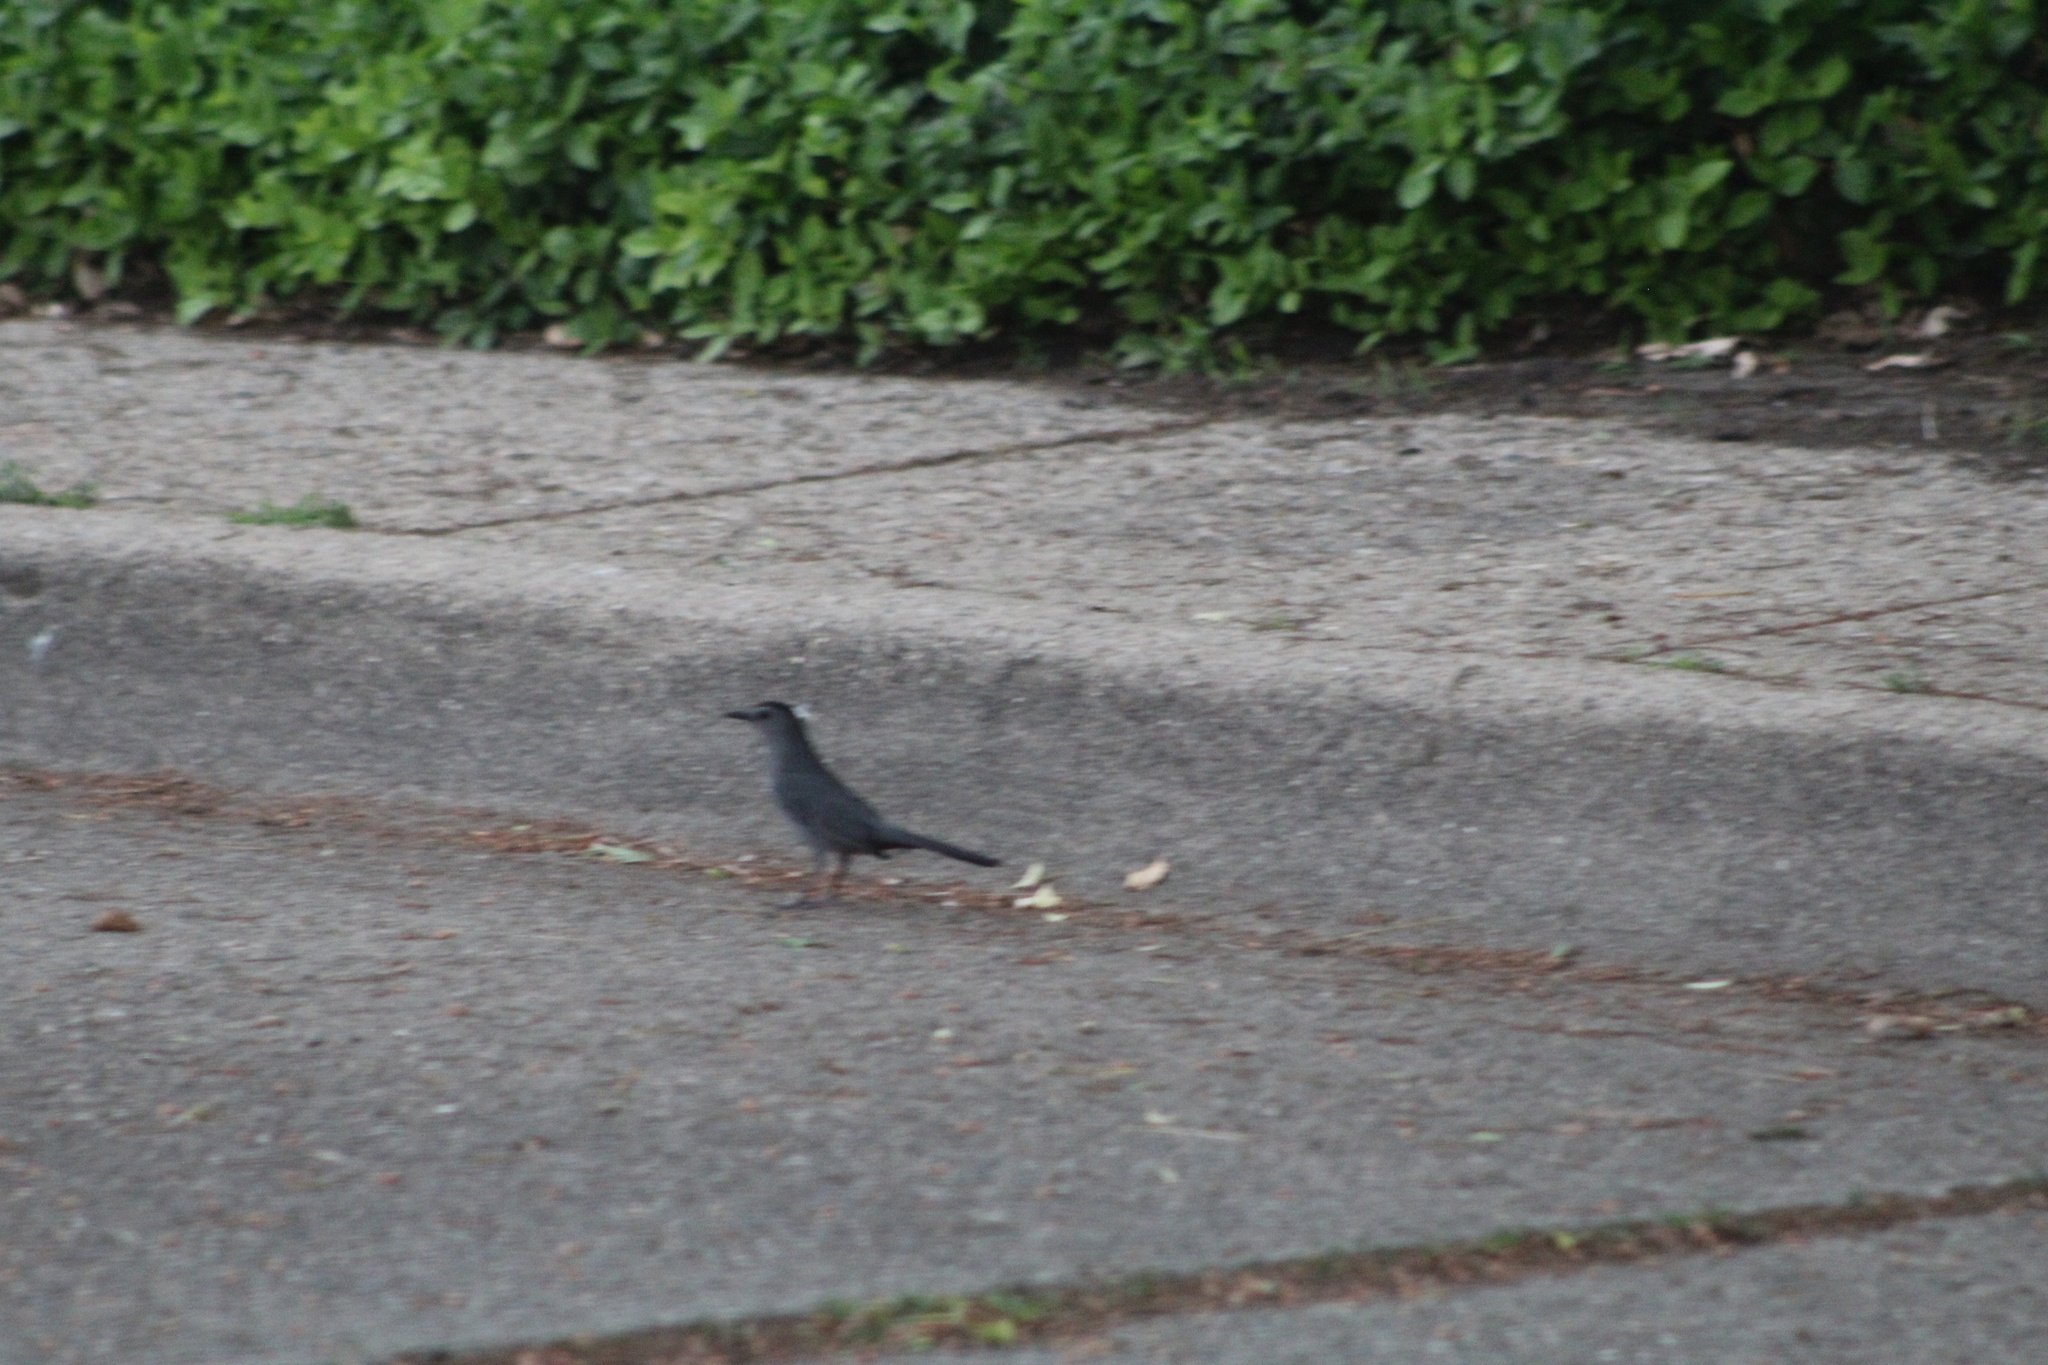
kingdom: Animalia
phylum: Chordata
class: Aves
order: Passeriformes
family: Mimidae
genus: Dumetella
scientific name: Dumetella carolinensis
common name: Gray catbird
